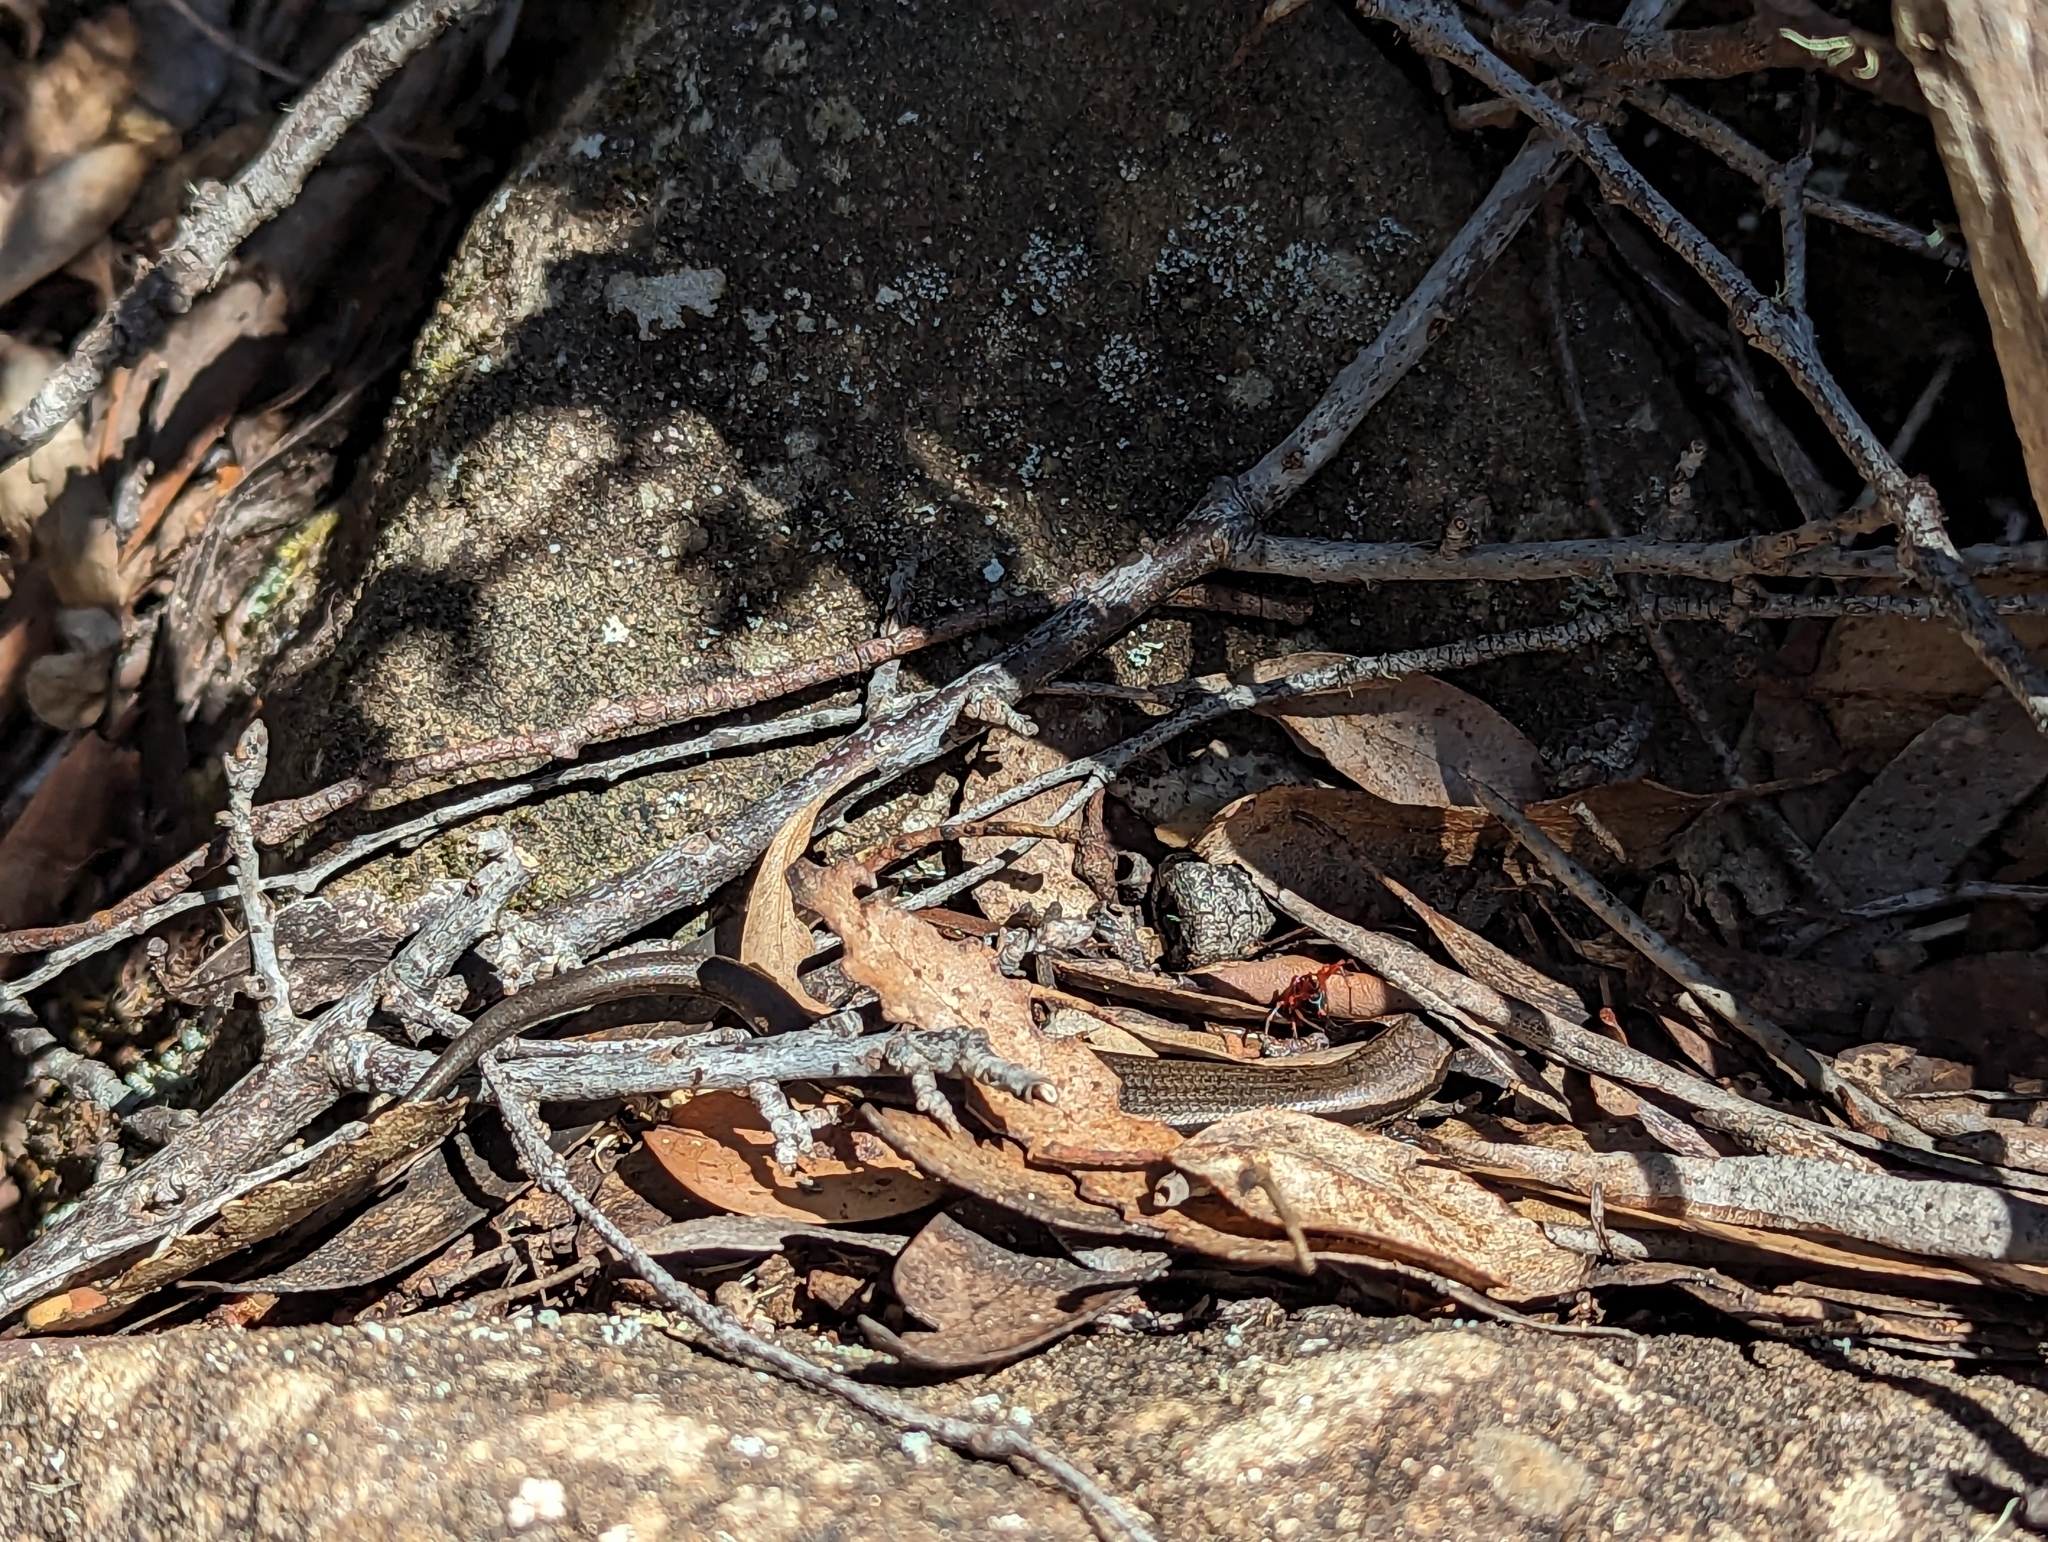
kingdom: Animalia
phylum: Chordata
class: Squamata
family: Scincidae
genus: Carinascincus
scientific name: Carinascincus metallicus
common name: Metallic cool-skink
